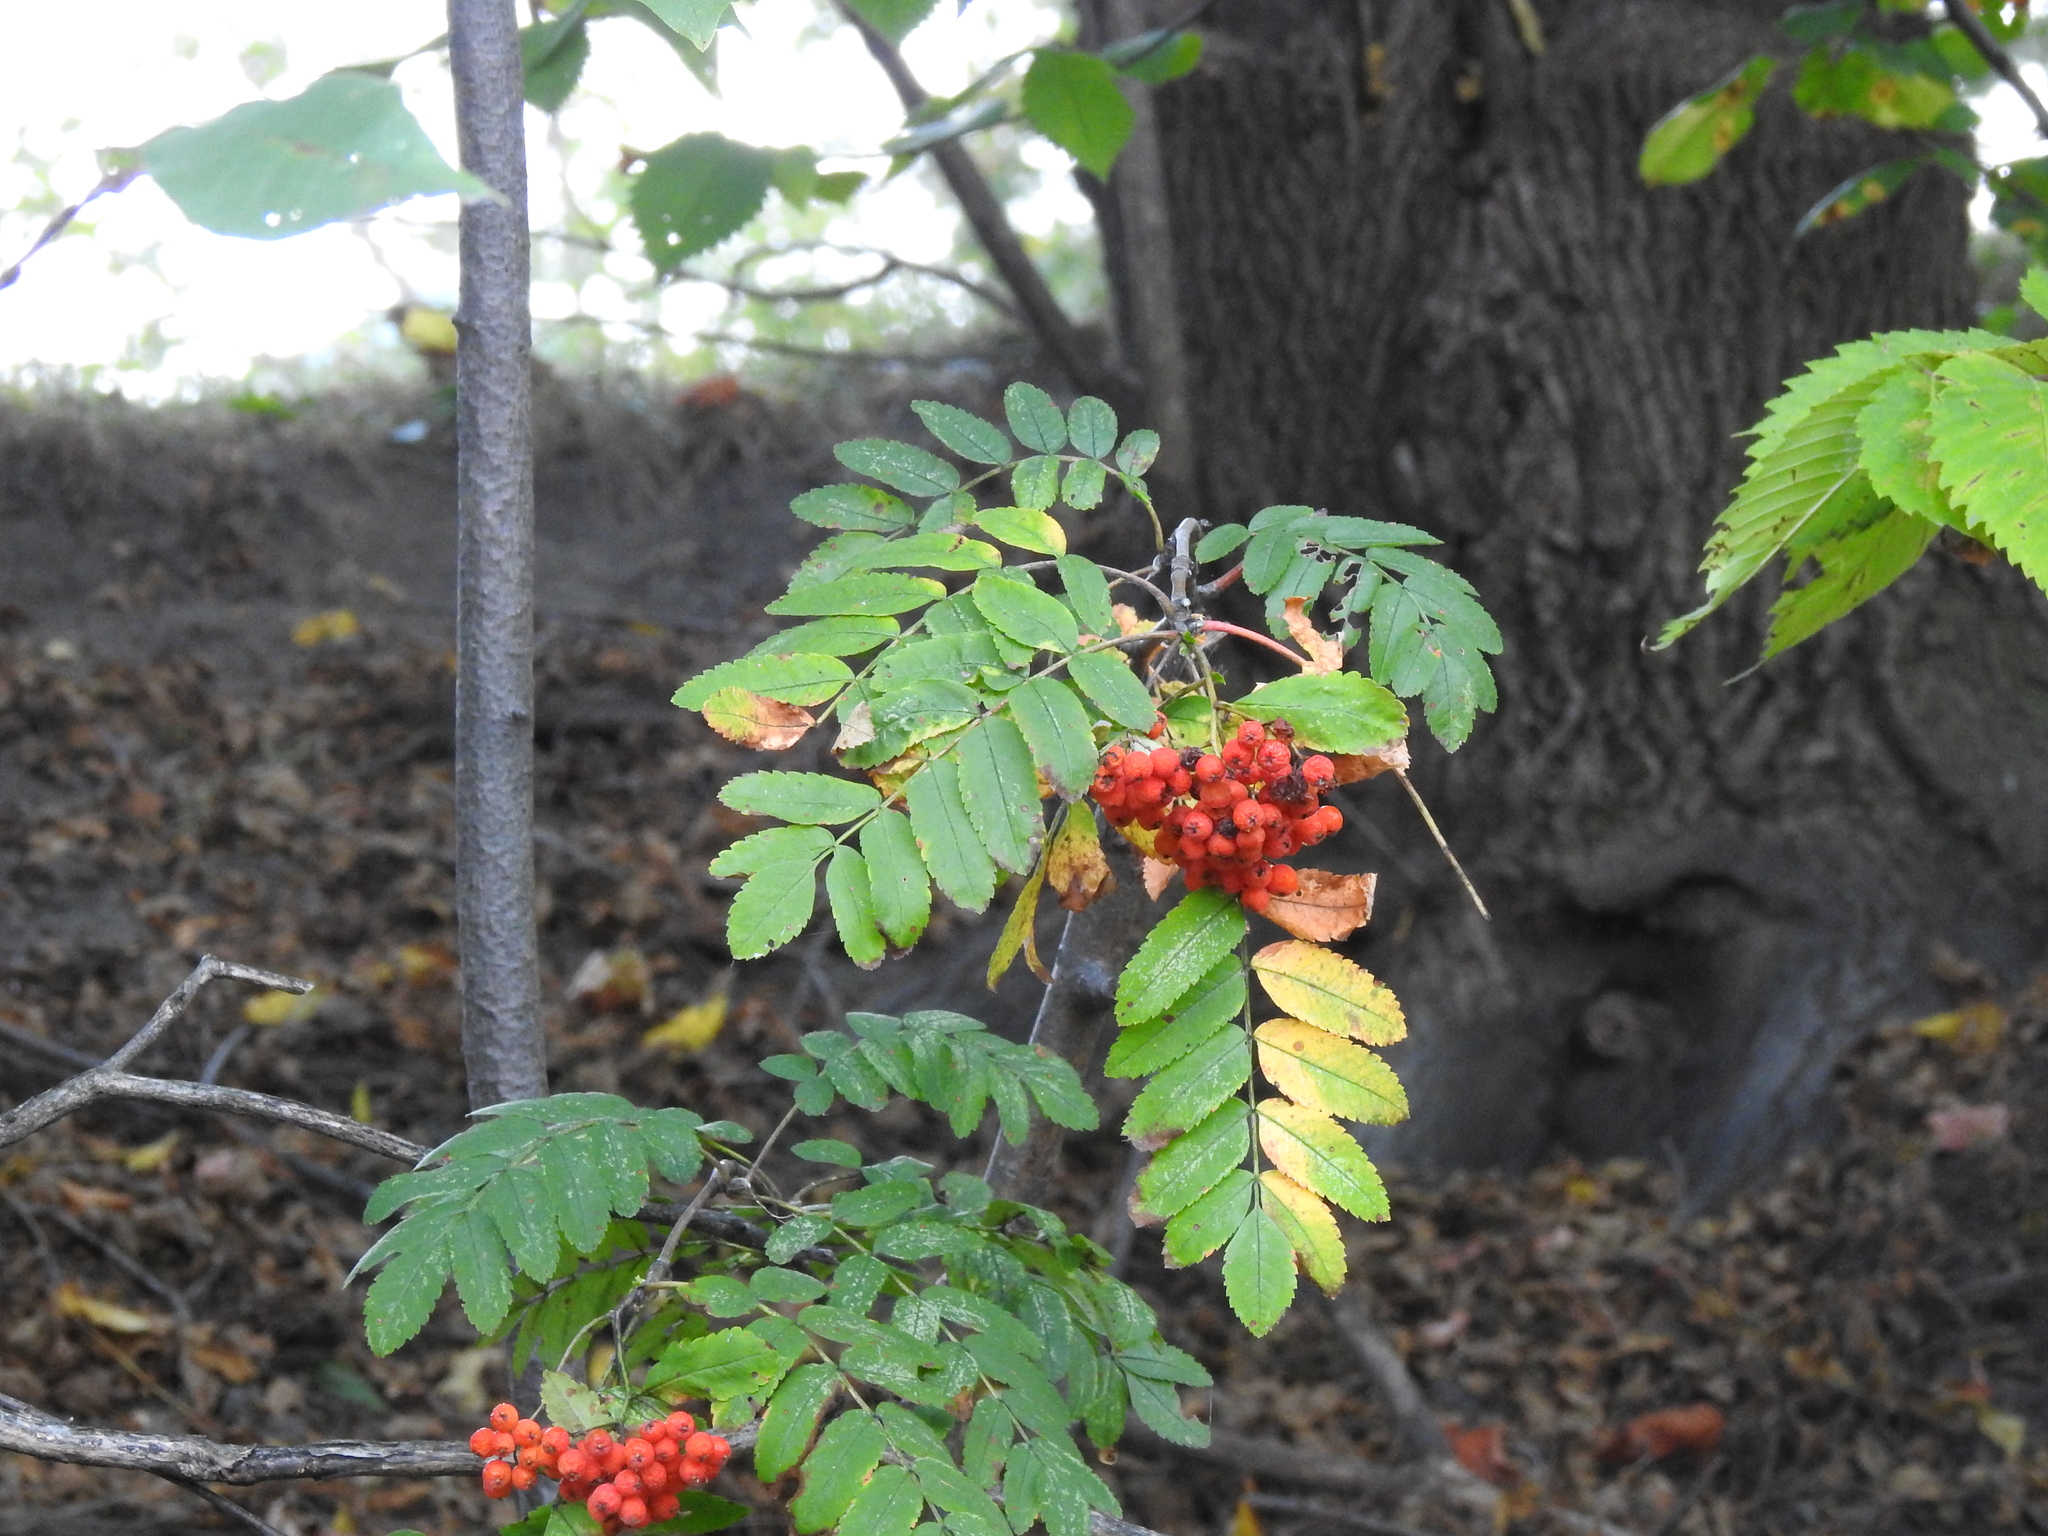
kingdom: Plantae
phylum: Tracheophyta
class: Magnoliopsida
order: Rosales
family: Rosaceae
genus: Sorbus
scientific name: Sorbus aucuparia
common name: Rowan
